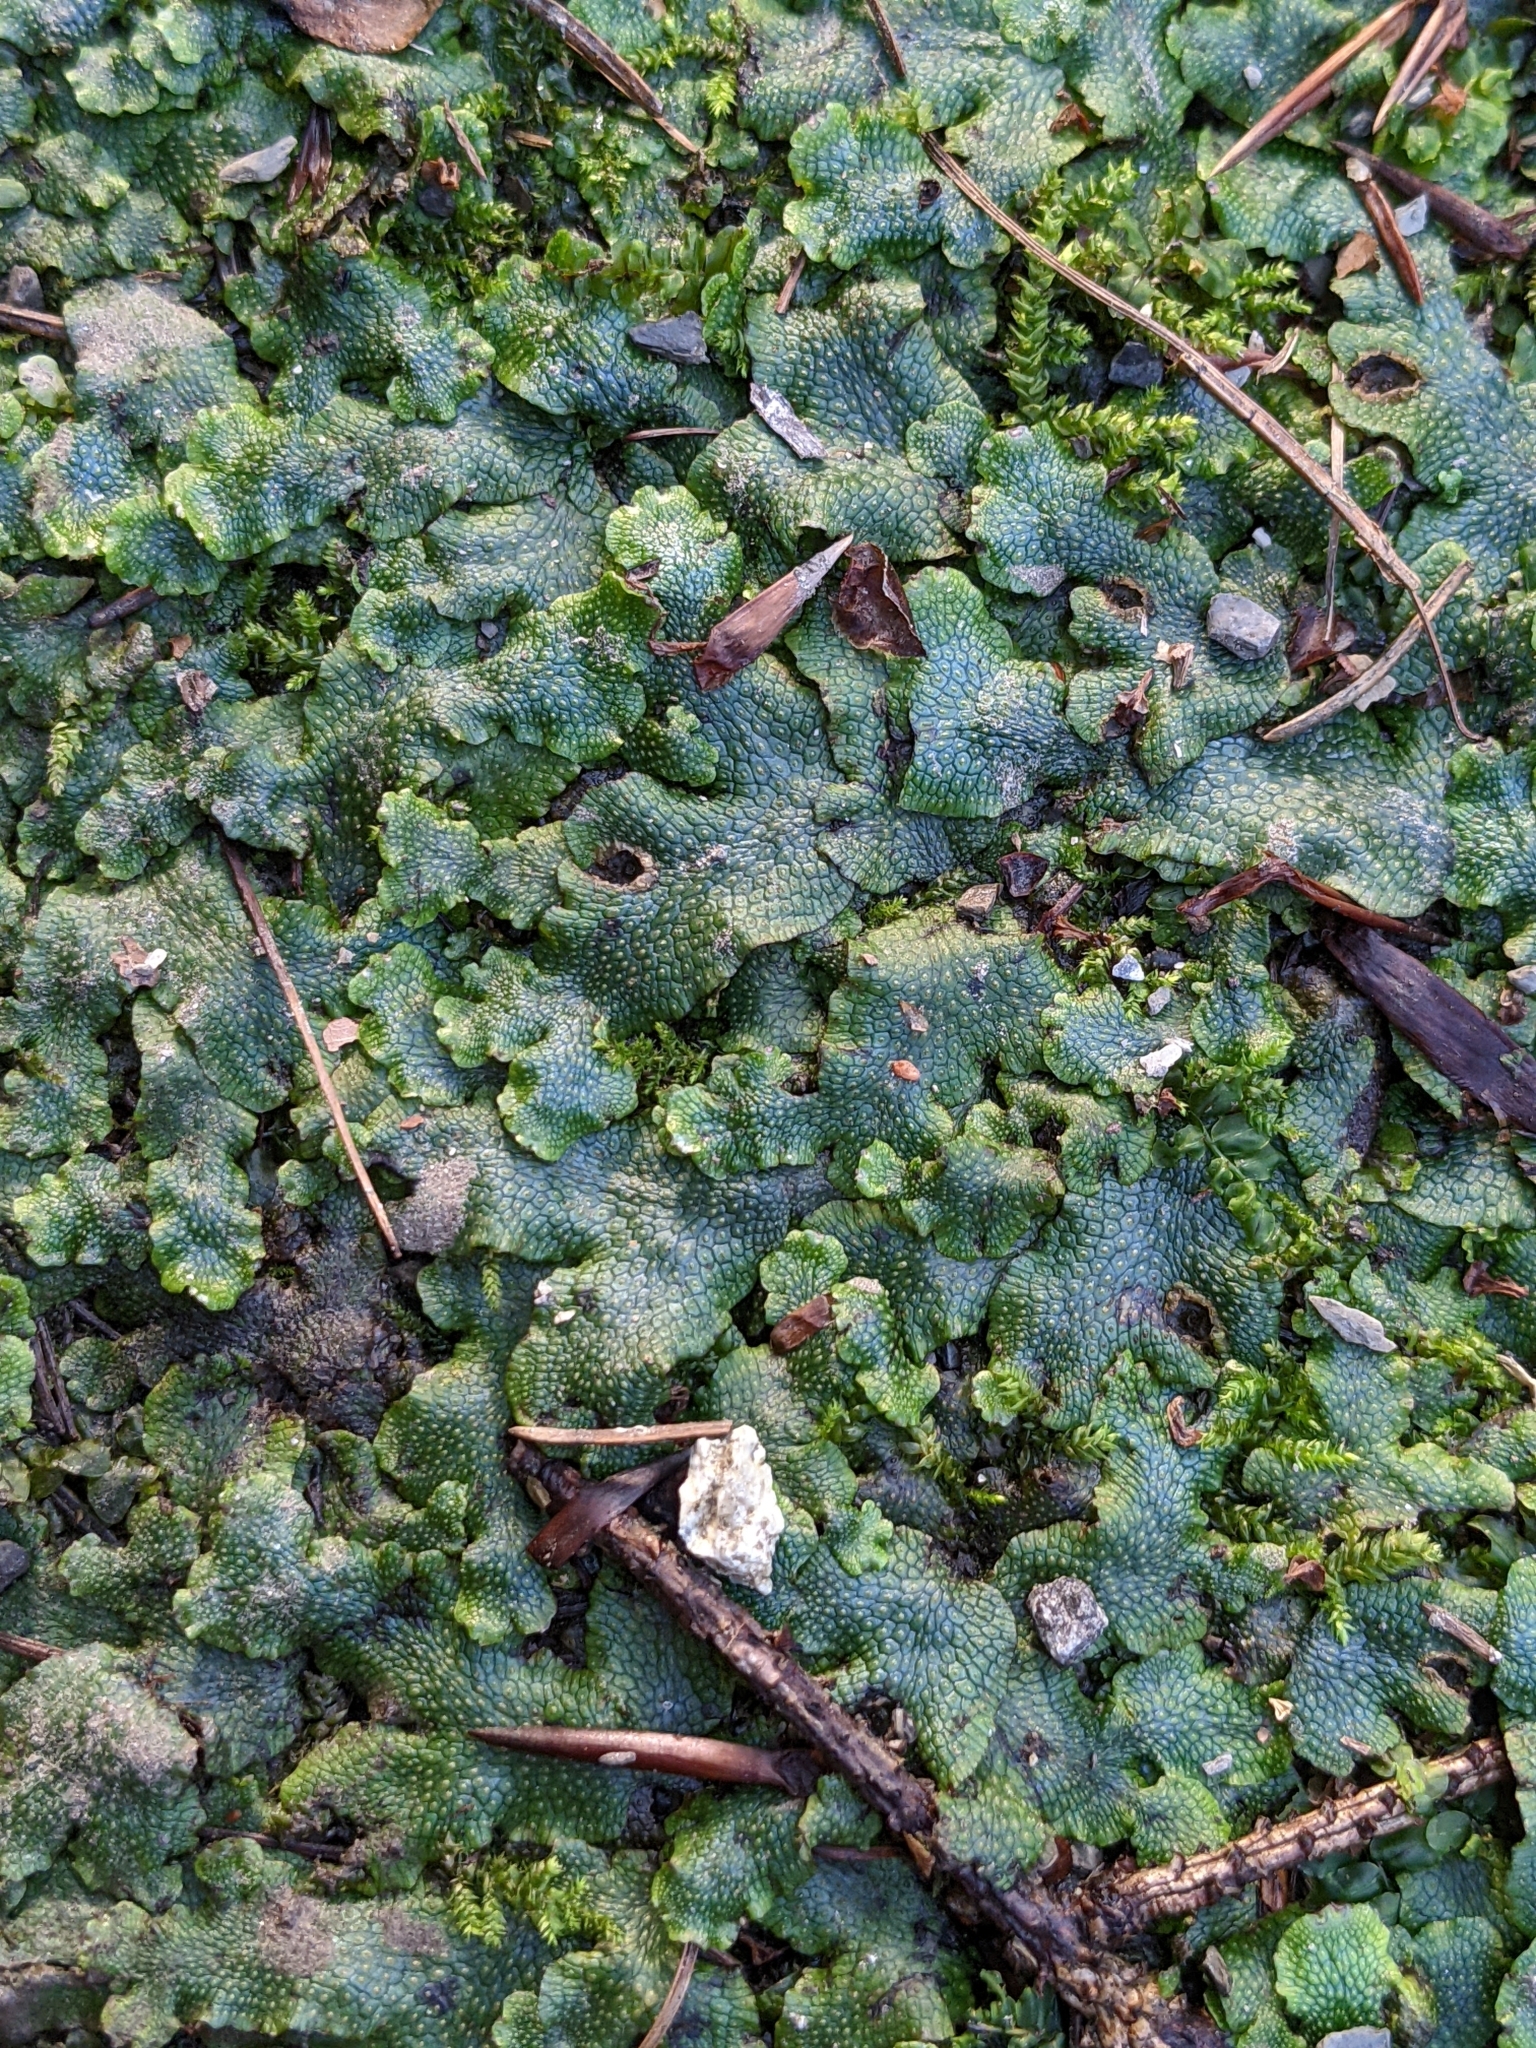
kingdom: Plantae
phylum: Marchantiophyta
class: Marchantiopsida
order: Marchantiales
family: Conocephalaceae
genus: Conocephalum
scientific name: Conocephalum salebrosum
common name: Cat-tongue liverwort
